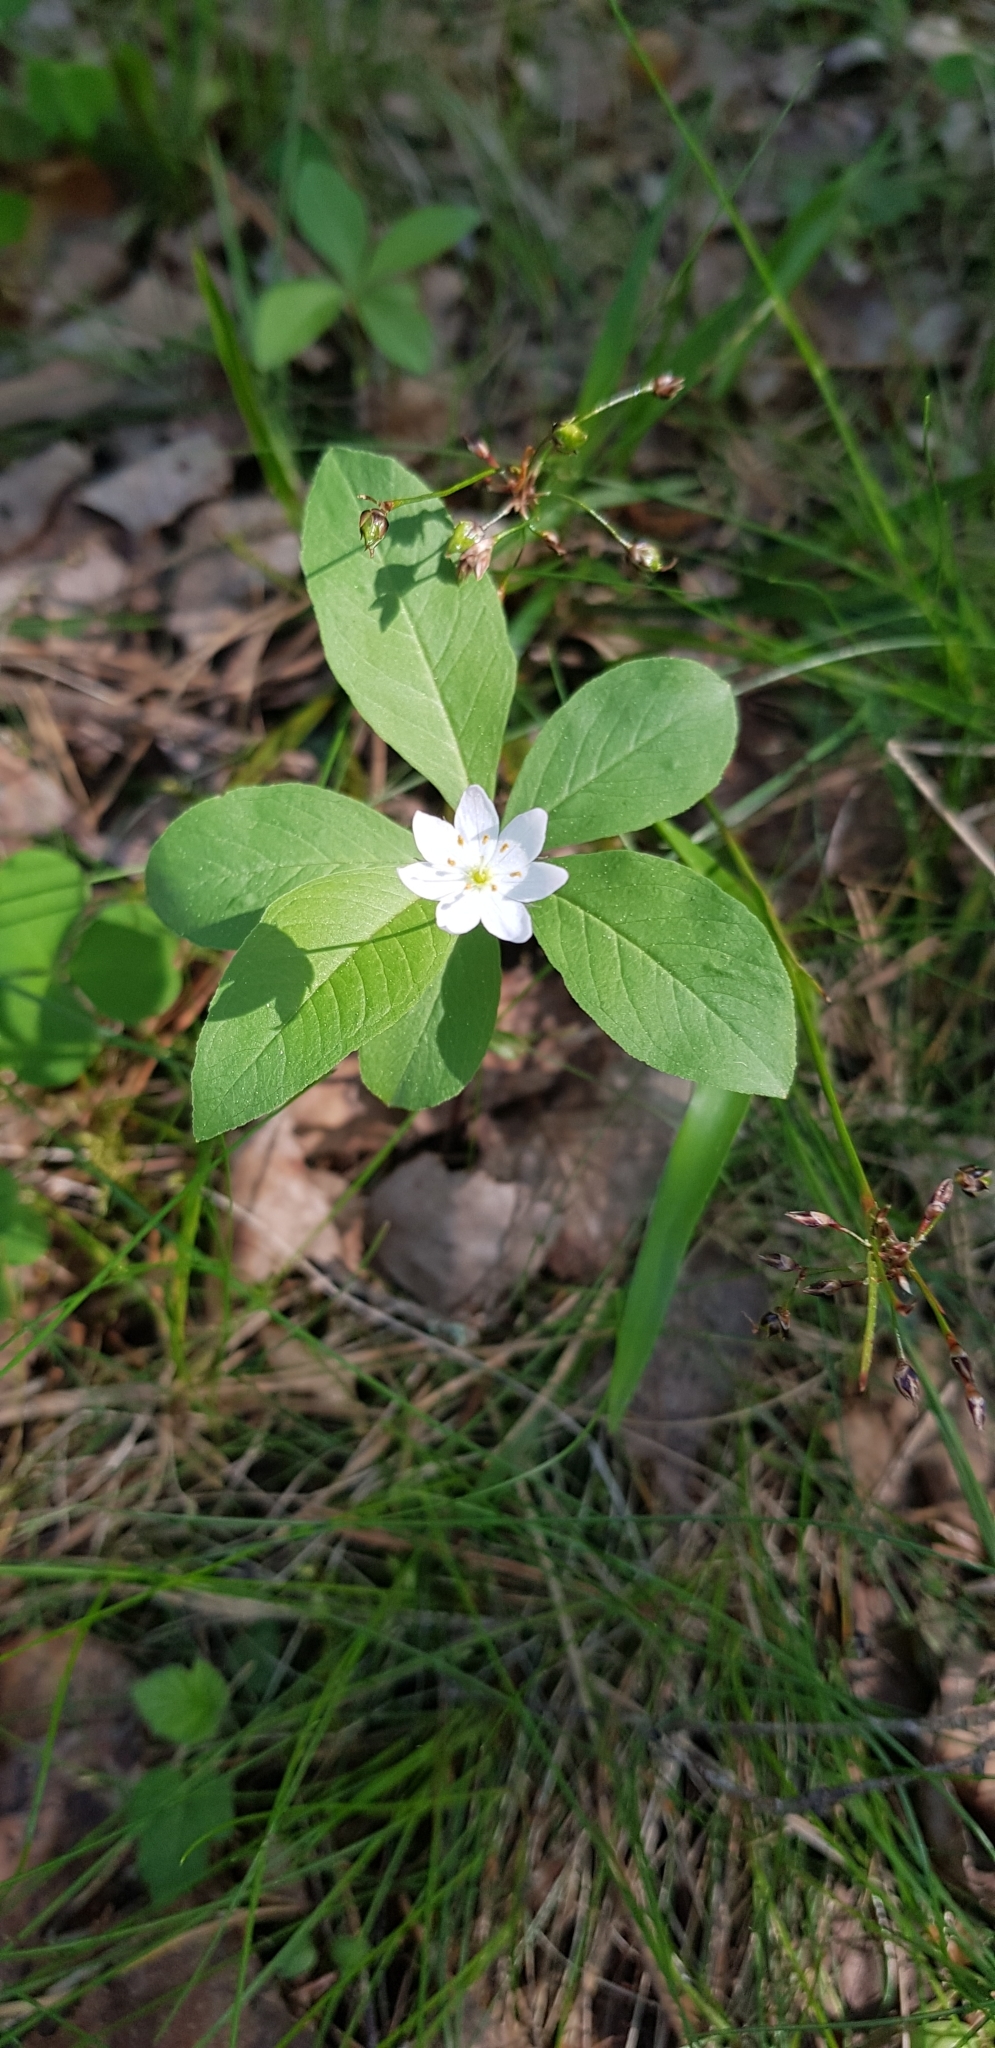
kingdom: Plantae
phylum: Tracheophyta
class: Magnoliopsida
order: Ericales
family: Primulaceae
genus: Lysimachia
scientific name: Lysimachia europaea
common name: Arctic starflower
